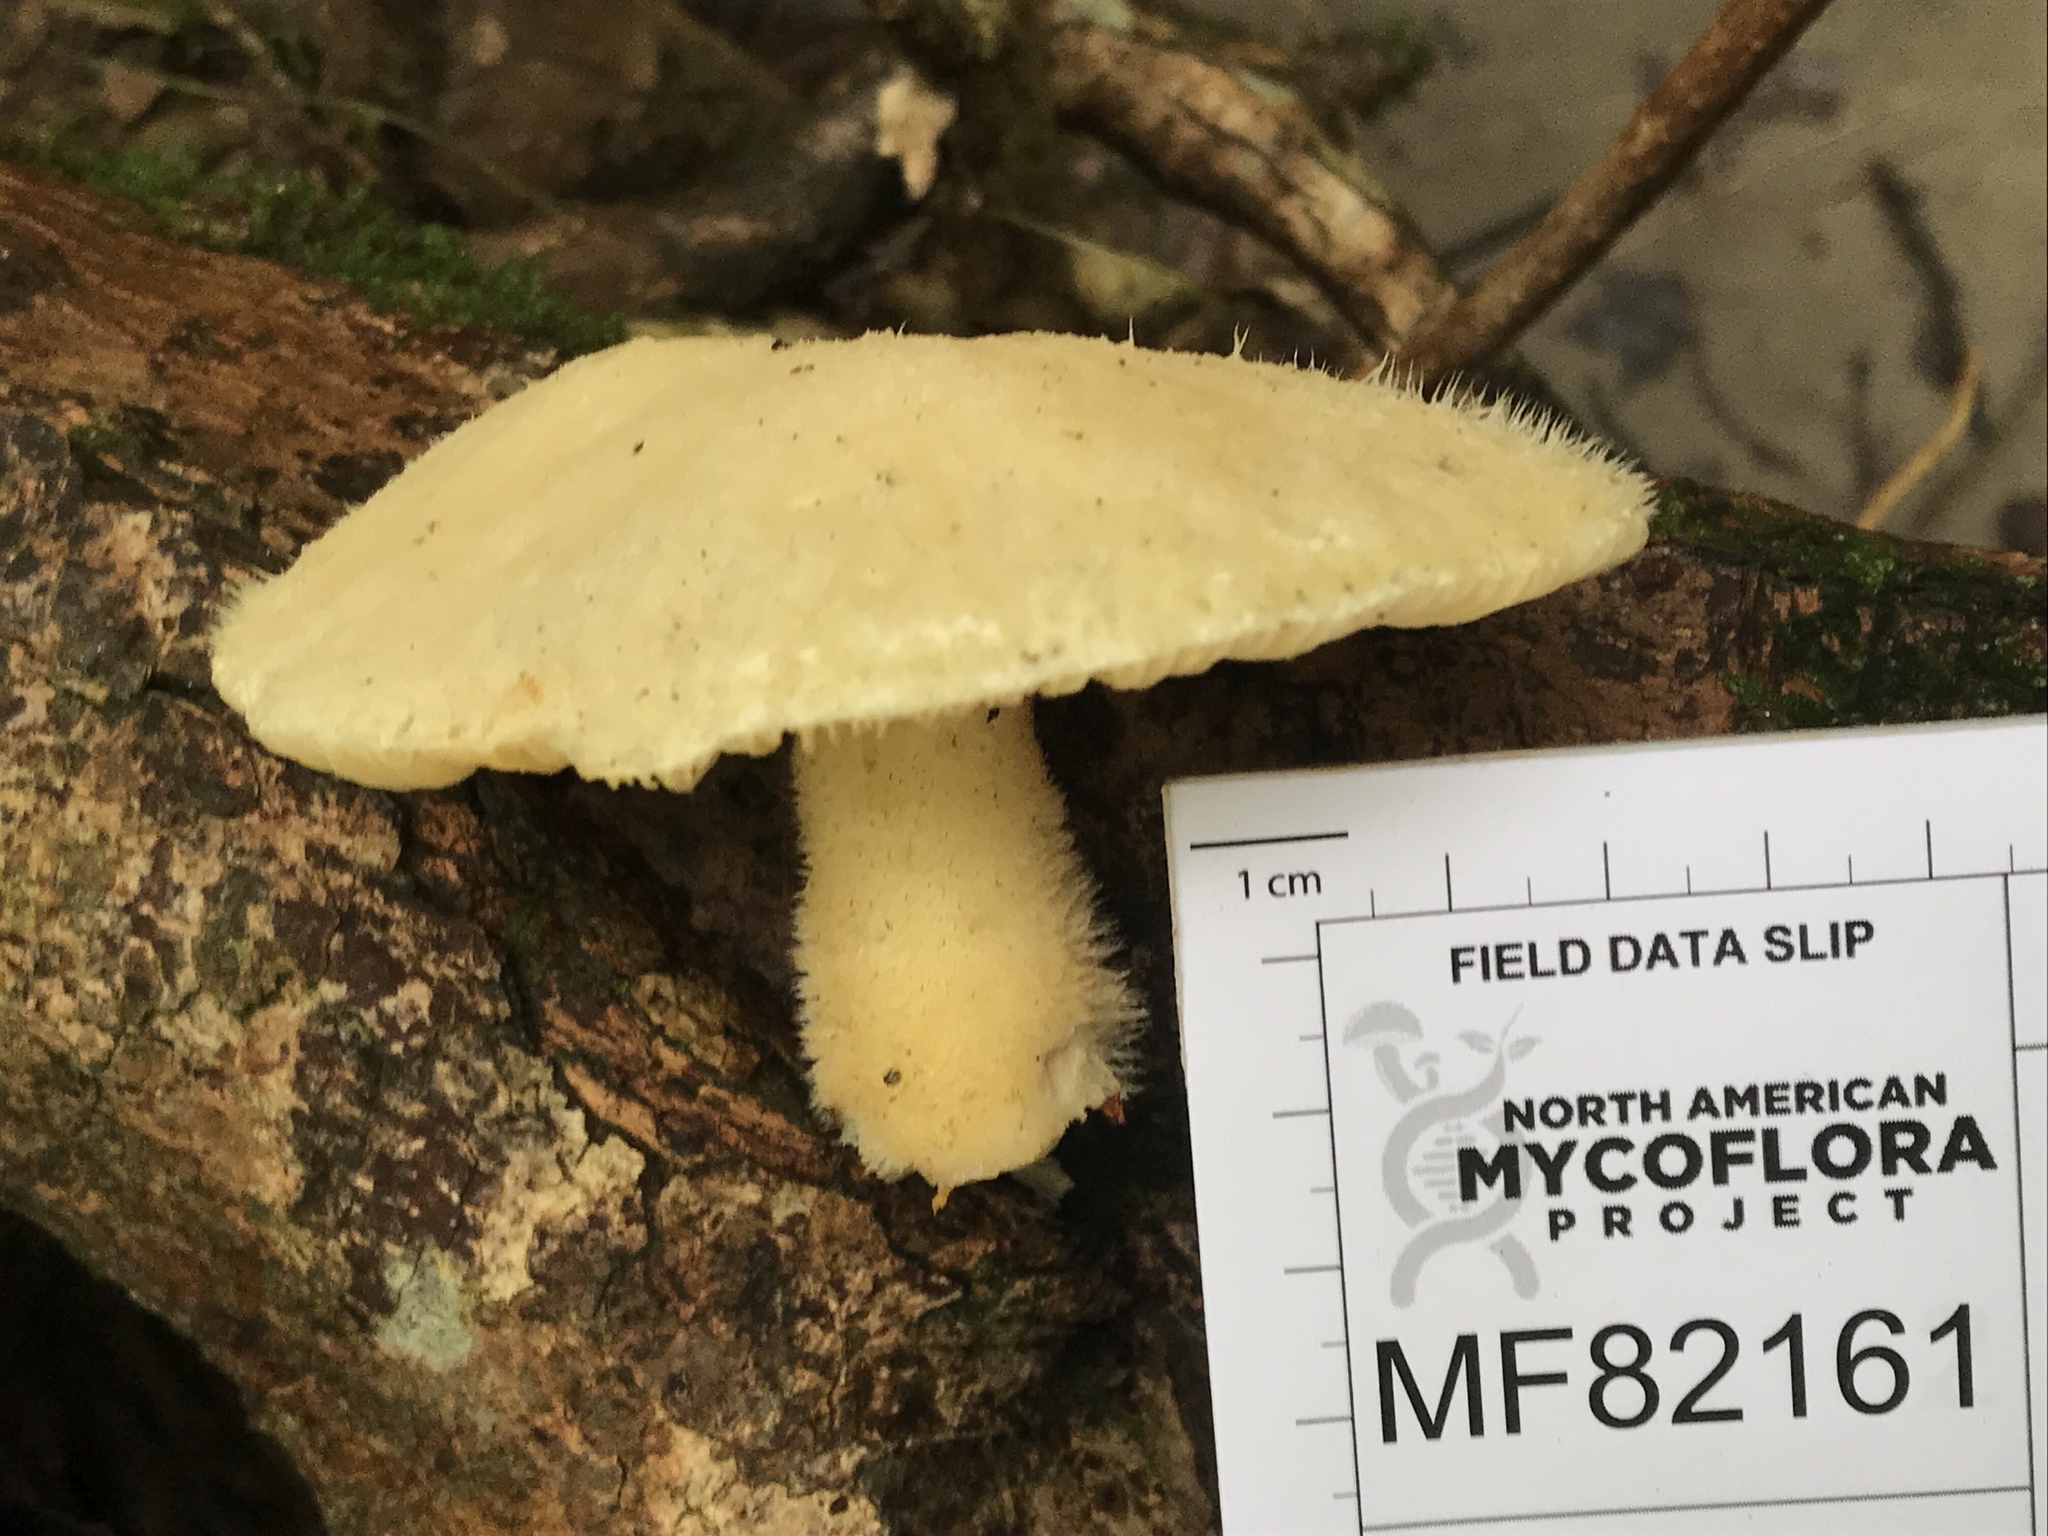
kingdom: Fungi
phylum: Basidiomycota
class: Agaricomycetes
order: Polyporales
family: Polyporaceae
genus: Lentinus
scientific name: Lentinus levis
